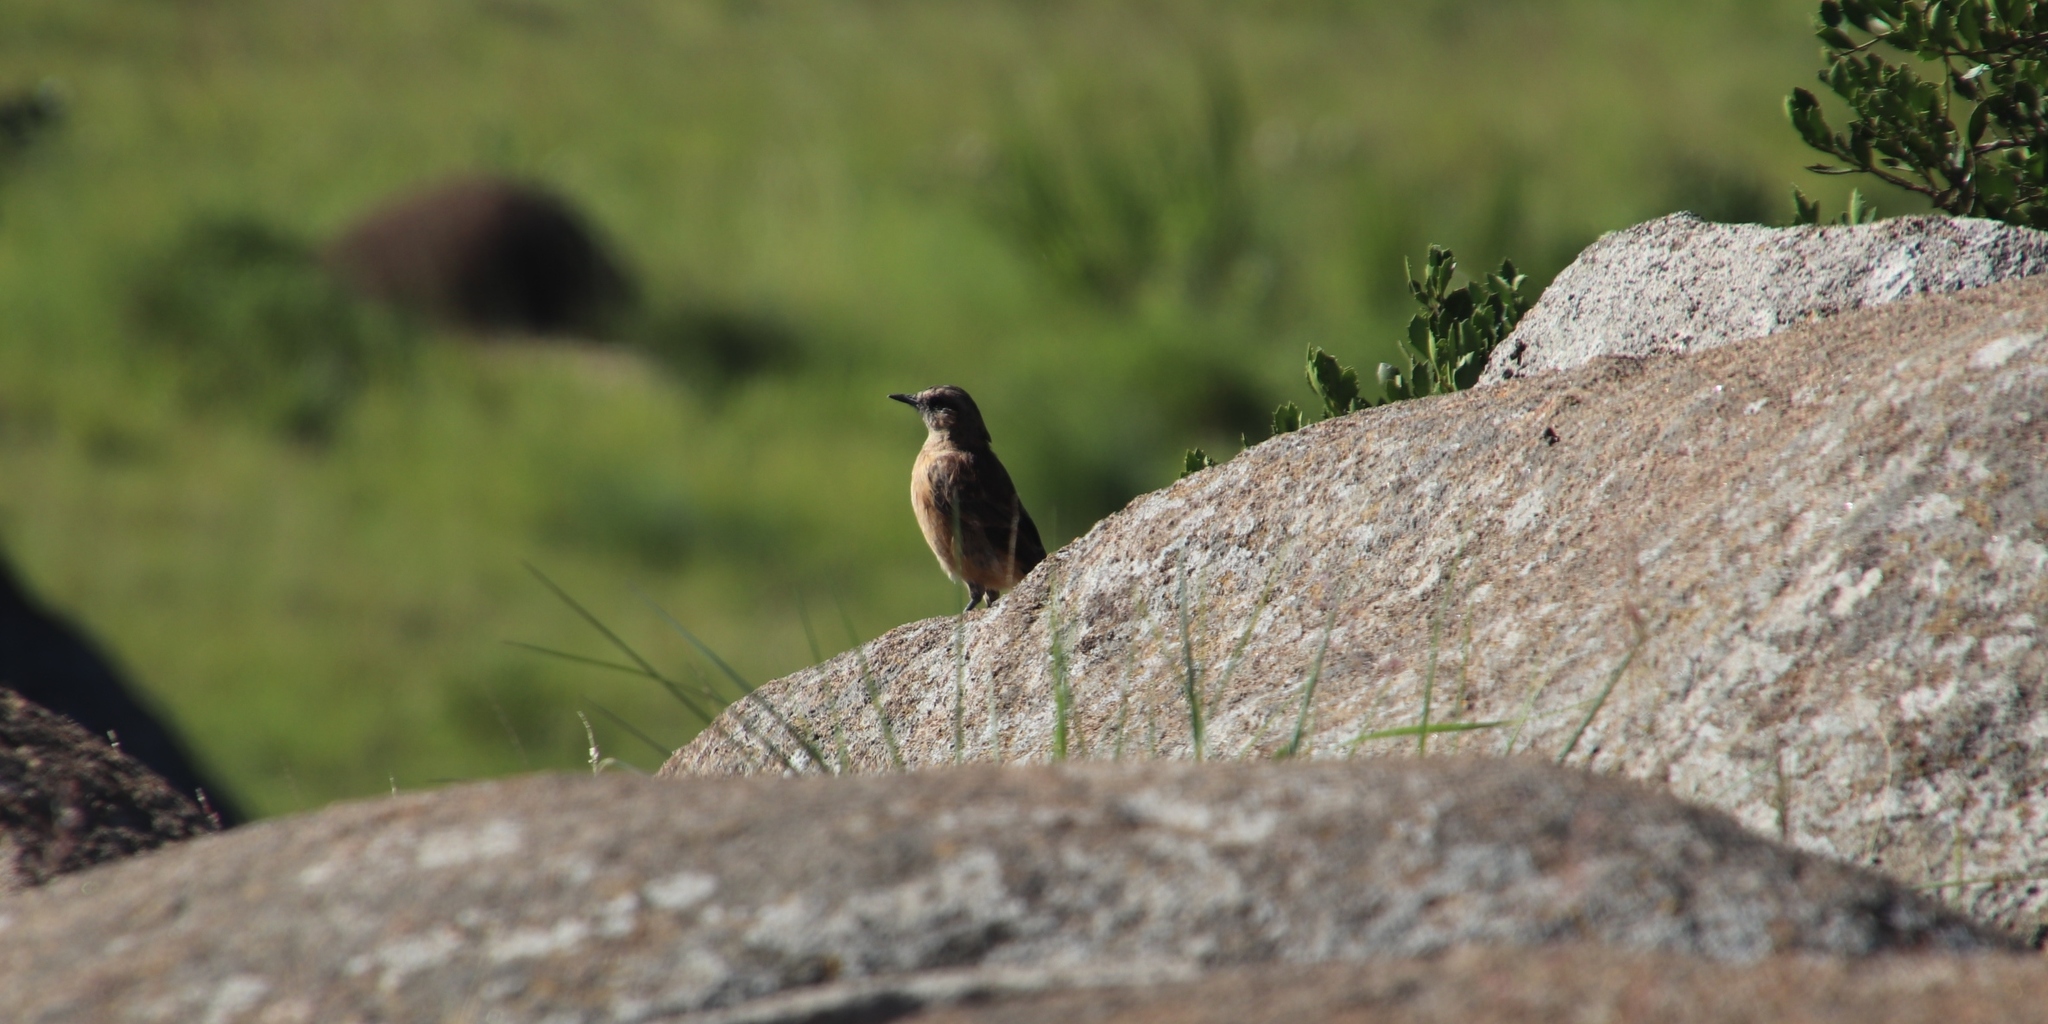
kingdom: Animalia
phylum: Chordata
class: Aves
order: Passeriformes
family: Muscicapidae
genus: Monticola
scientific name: Monticola rupestris
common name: Cape rock thrush
